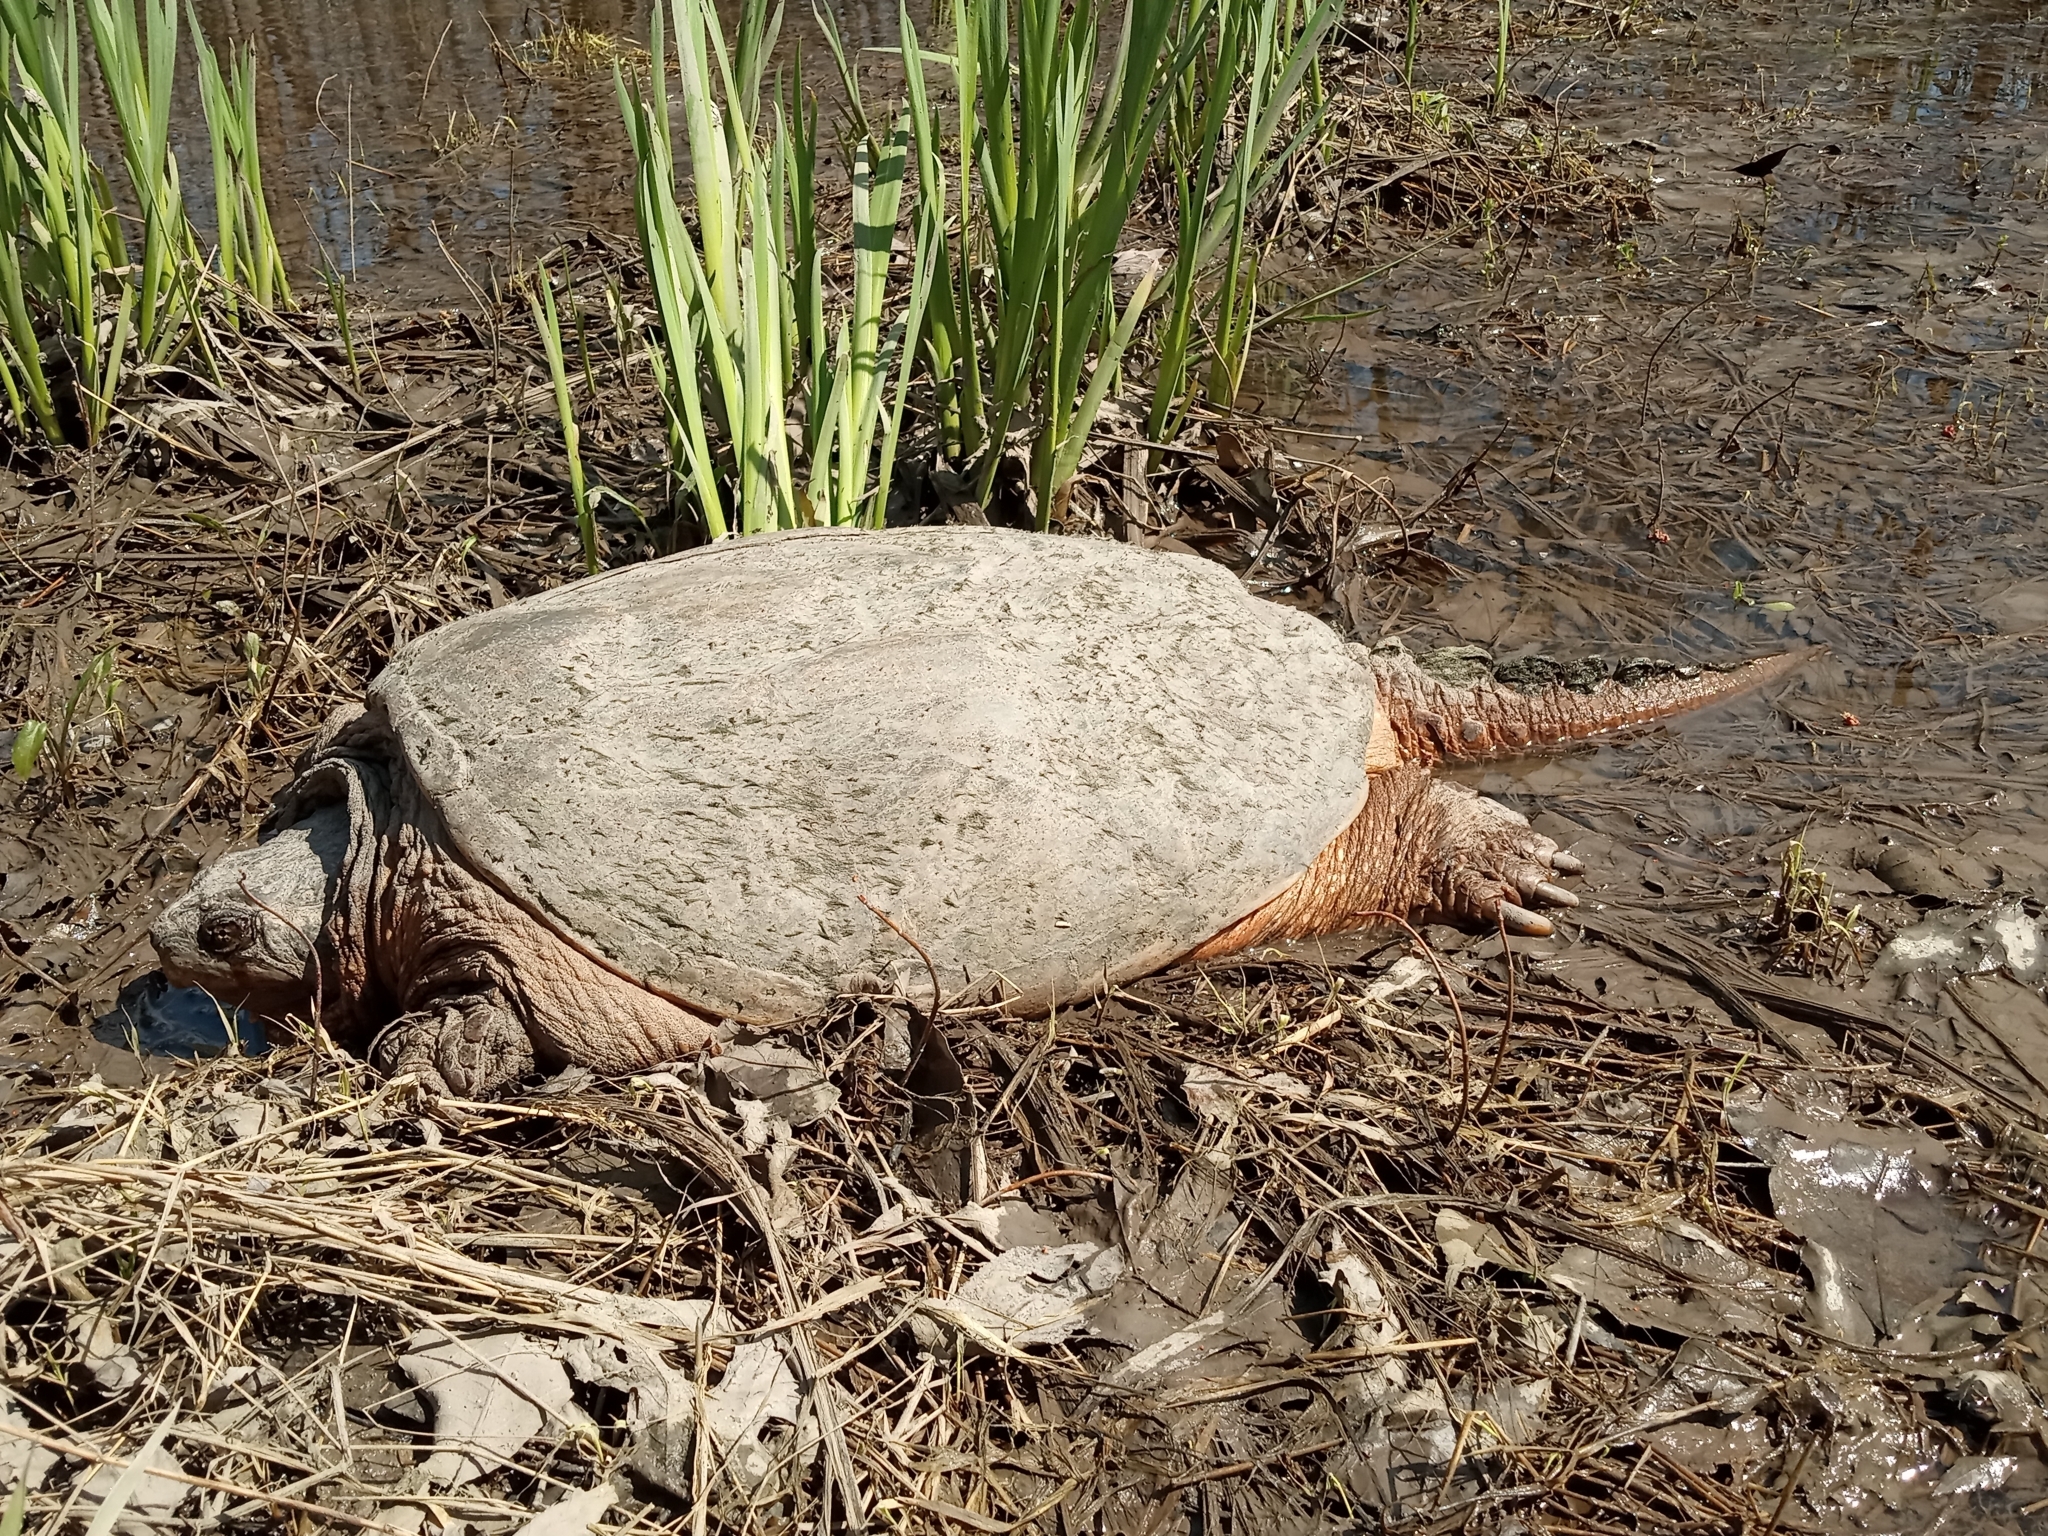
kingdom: Animalia
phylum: Chordata
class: Testudines
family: Chelydridae
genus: Chelydra
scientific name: Chelydra serpentina
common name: Common snapping turtle
